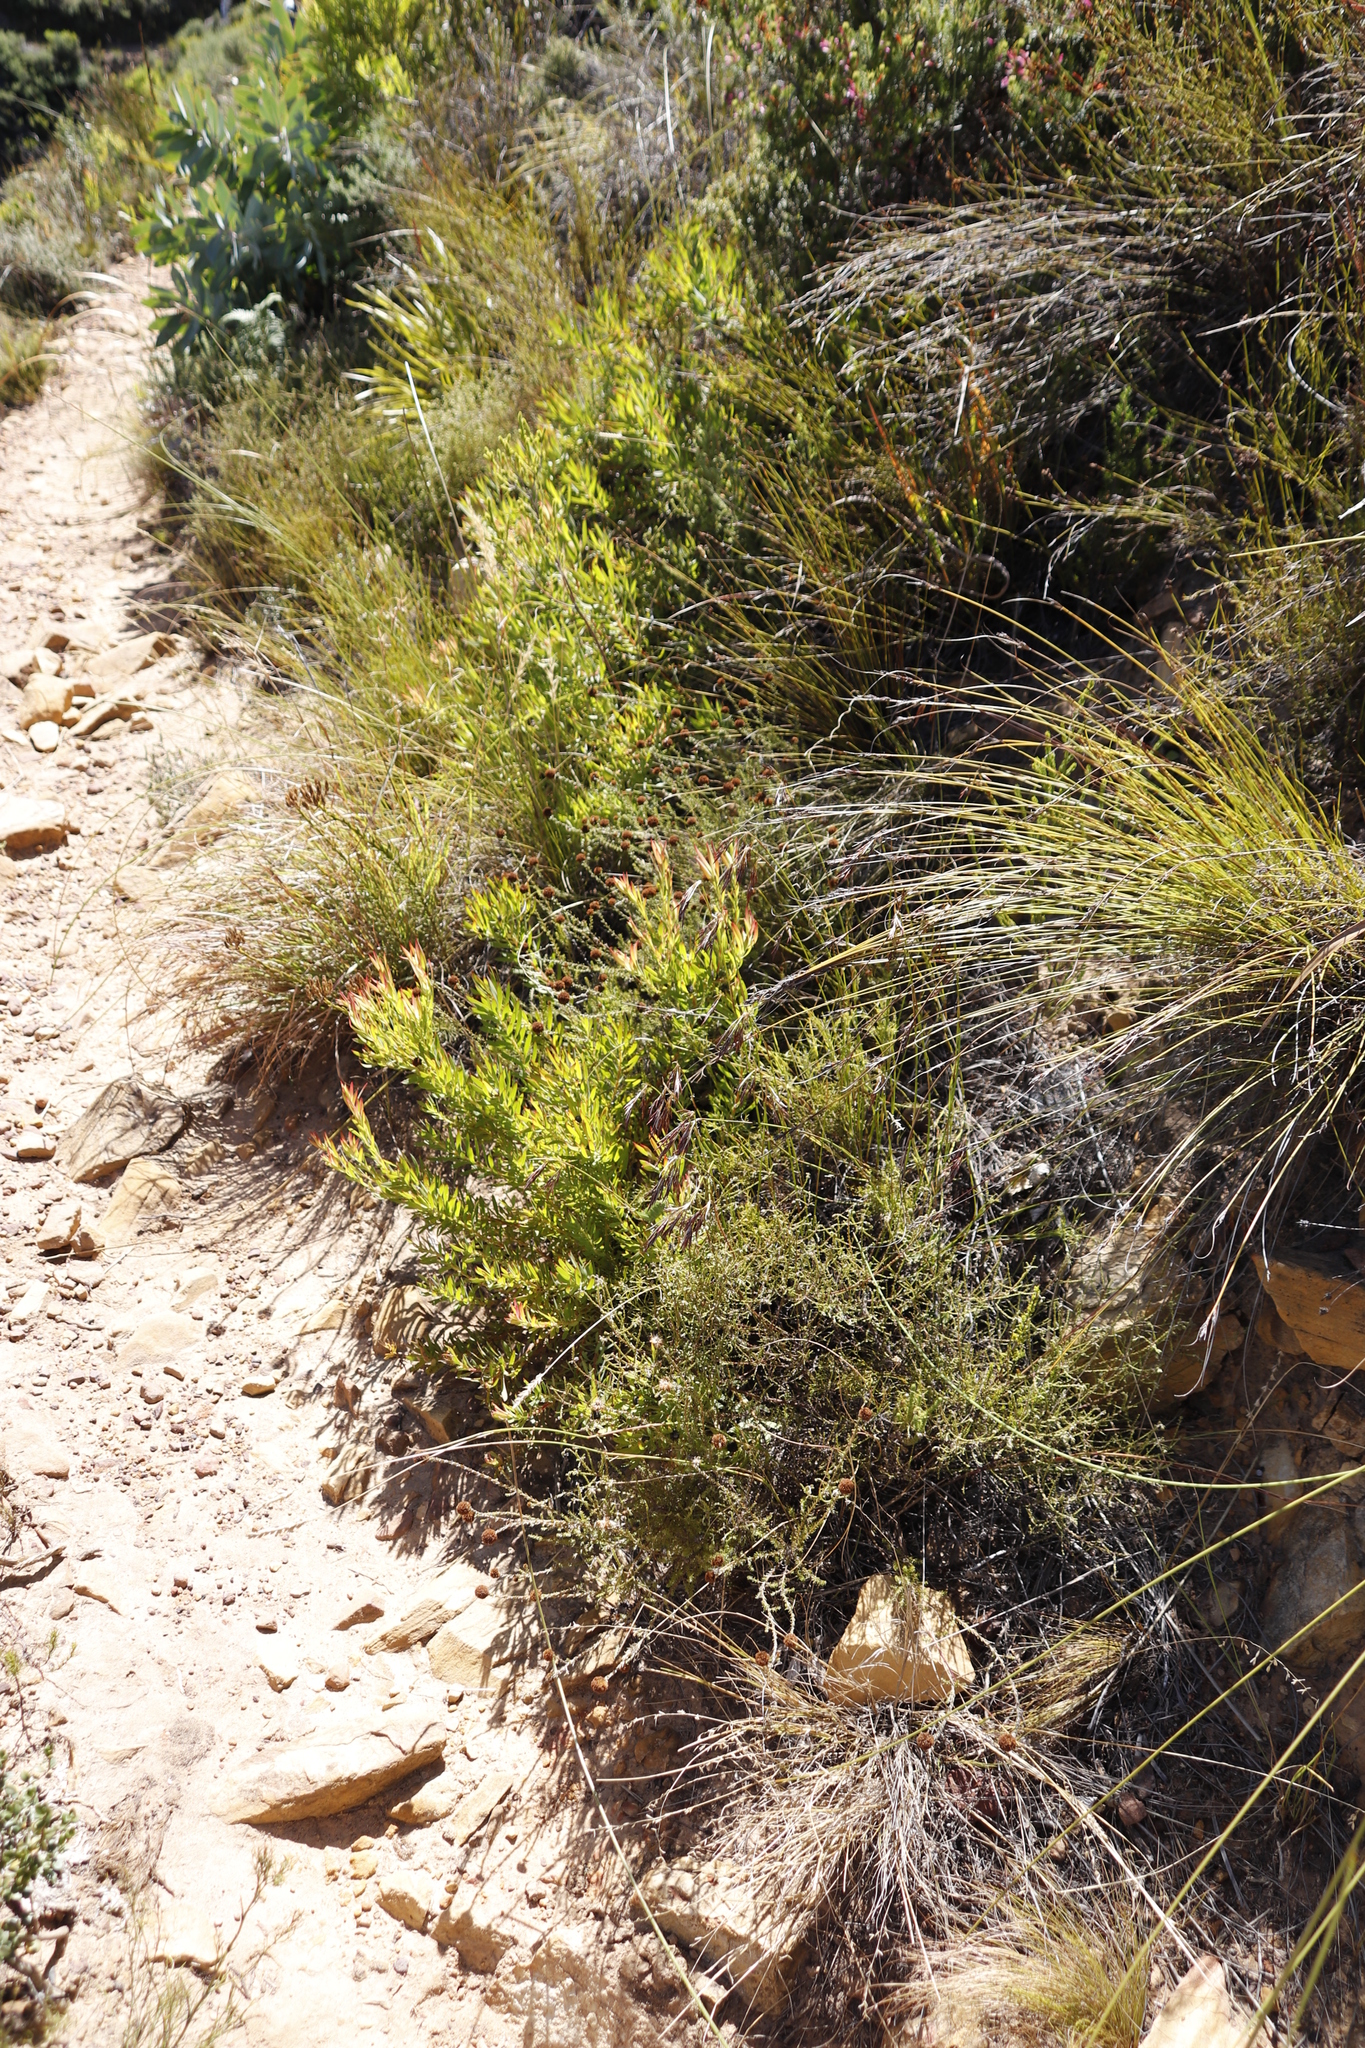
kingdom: Plantae
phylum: Tracheophyta
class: Magnoliopsida
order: Proteales
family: Proteaceae
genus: Leucadendron
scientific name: Leucadendron salignum
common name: Common sunshine conebush
